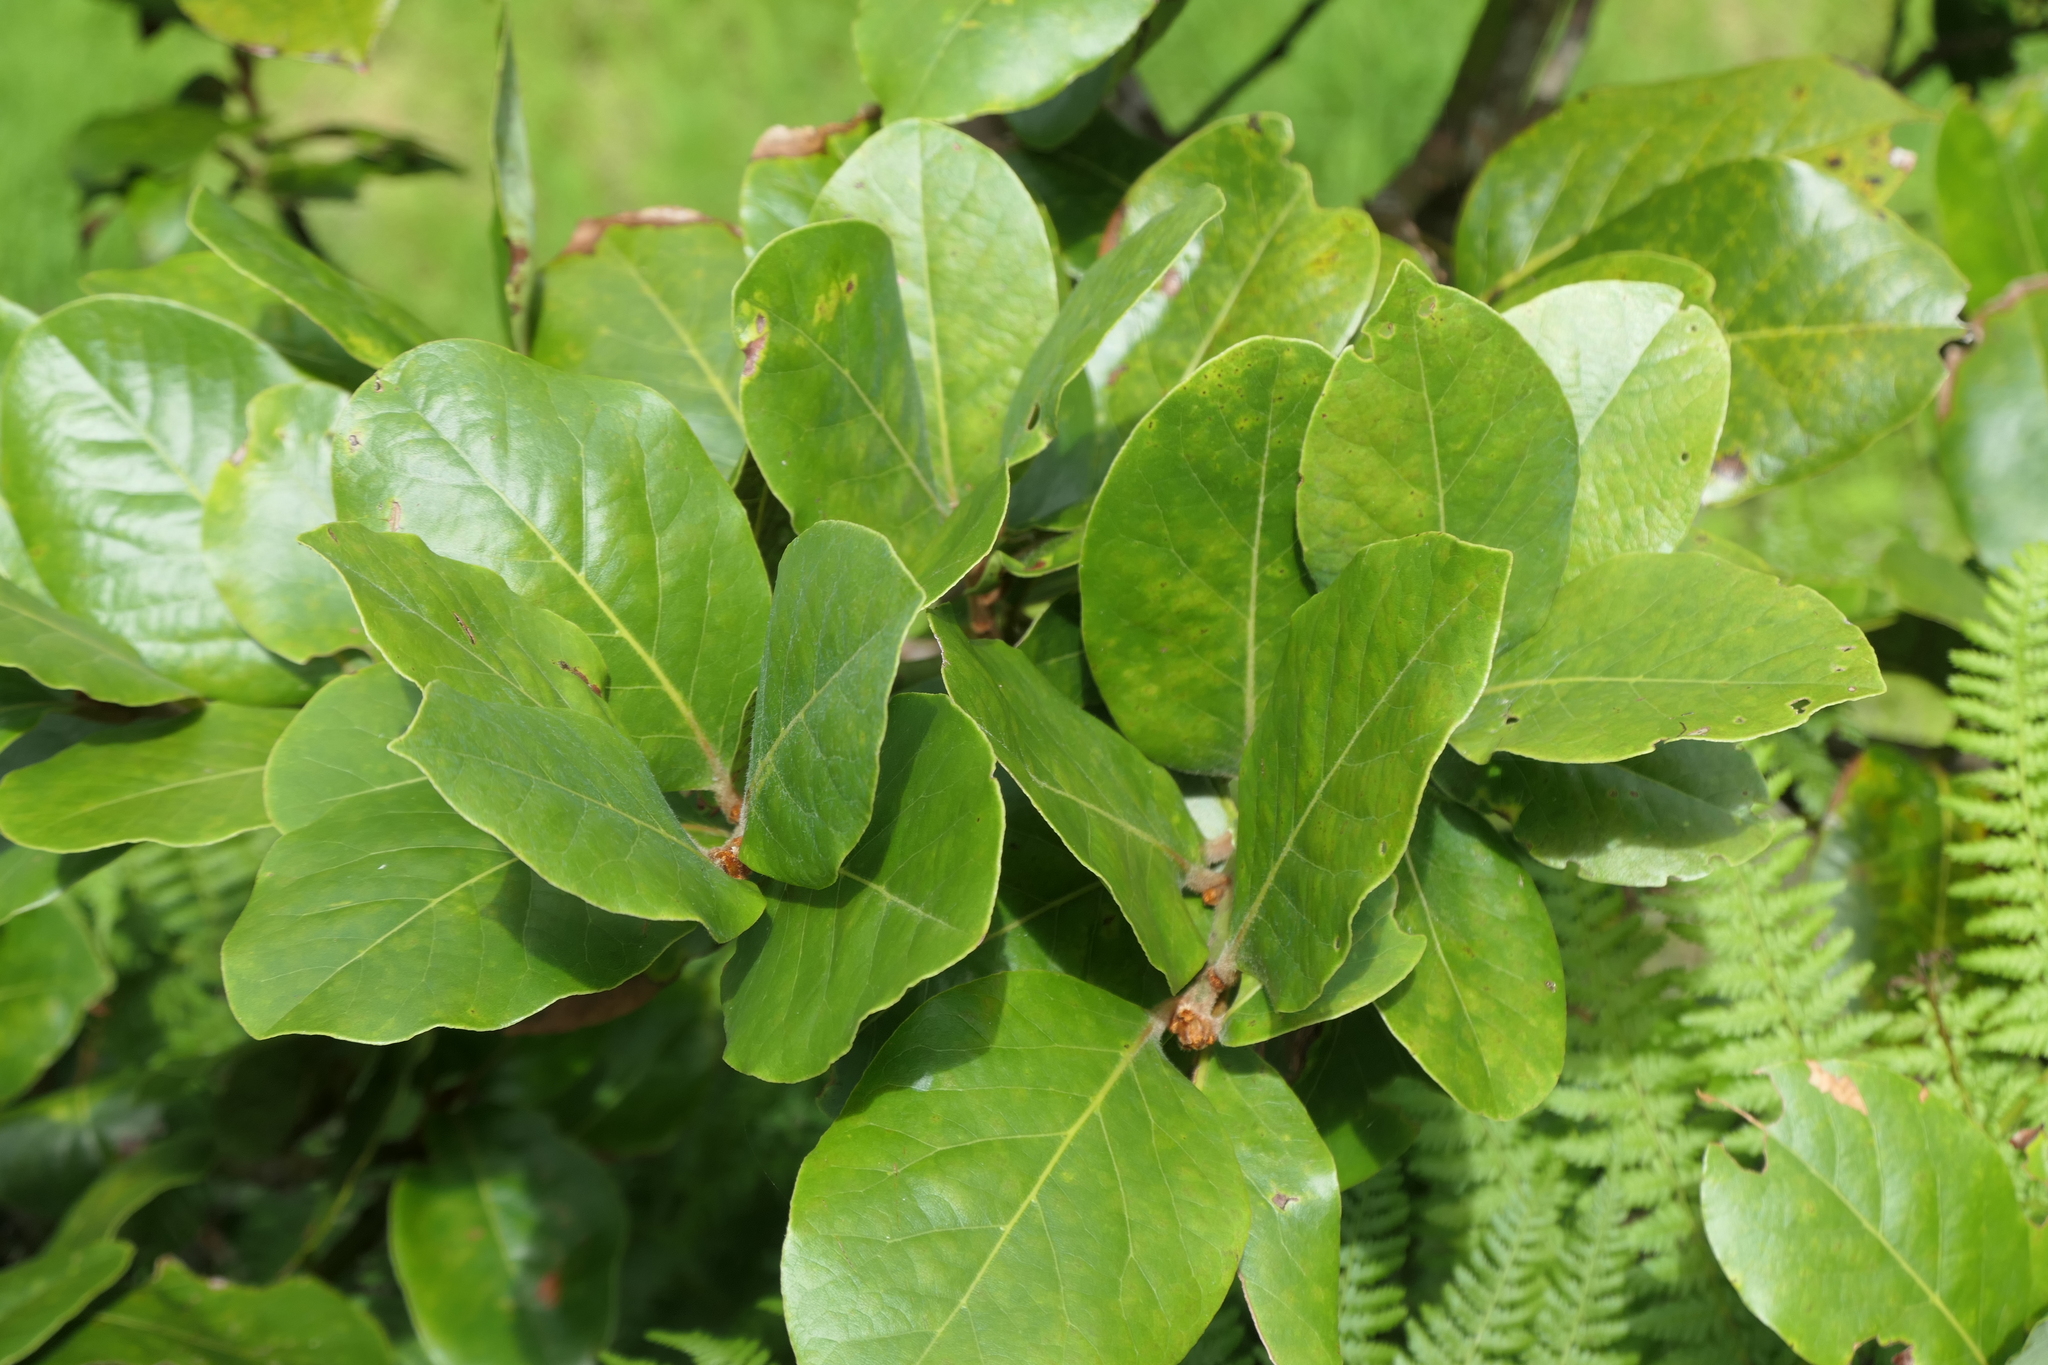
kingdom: Plantae
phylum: Tracheophyta
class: Magnoliopsida
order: Laurales
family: Lauraceae
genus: Laurus
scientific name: Laurus azorica
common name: Macaronesian laurel
